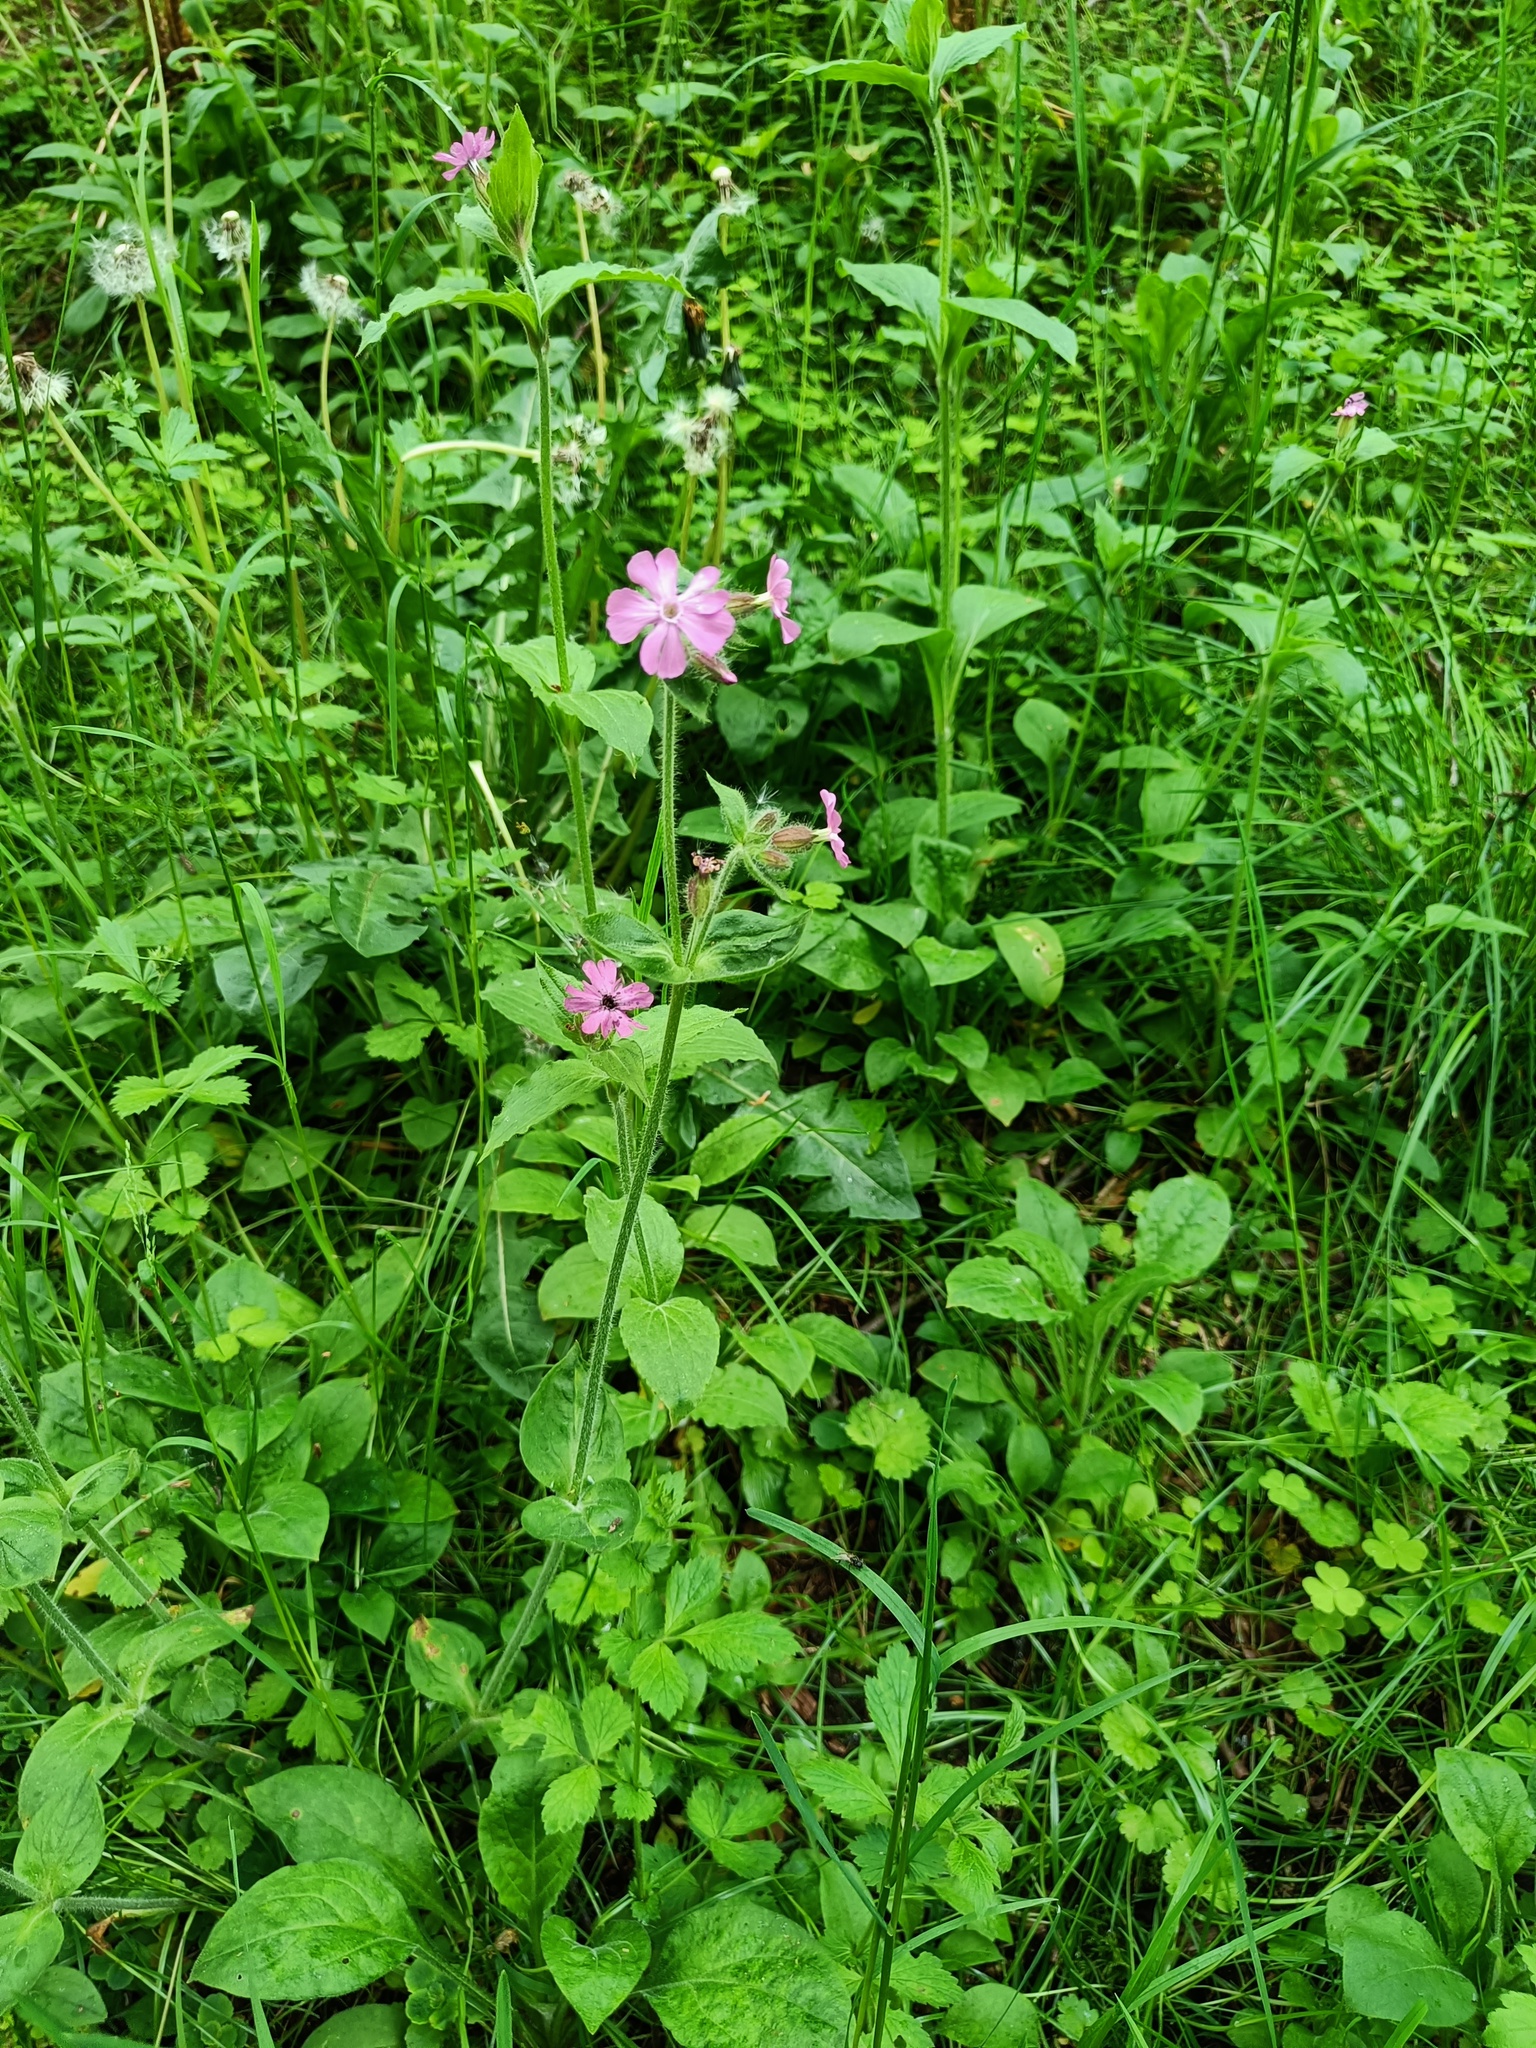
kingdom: Plantae
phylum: Tracheophyta
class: Magnoliopsida
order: Caryophyllales
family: Caryophyllaceae
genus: Silene
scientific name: Silene dioica
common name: Red campion
